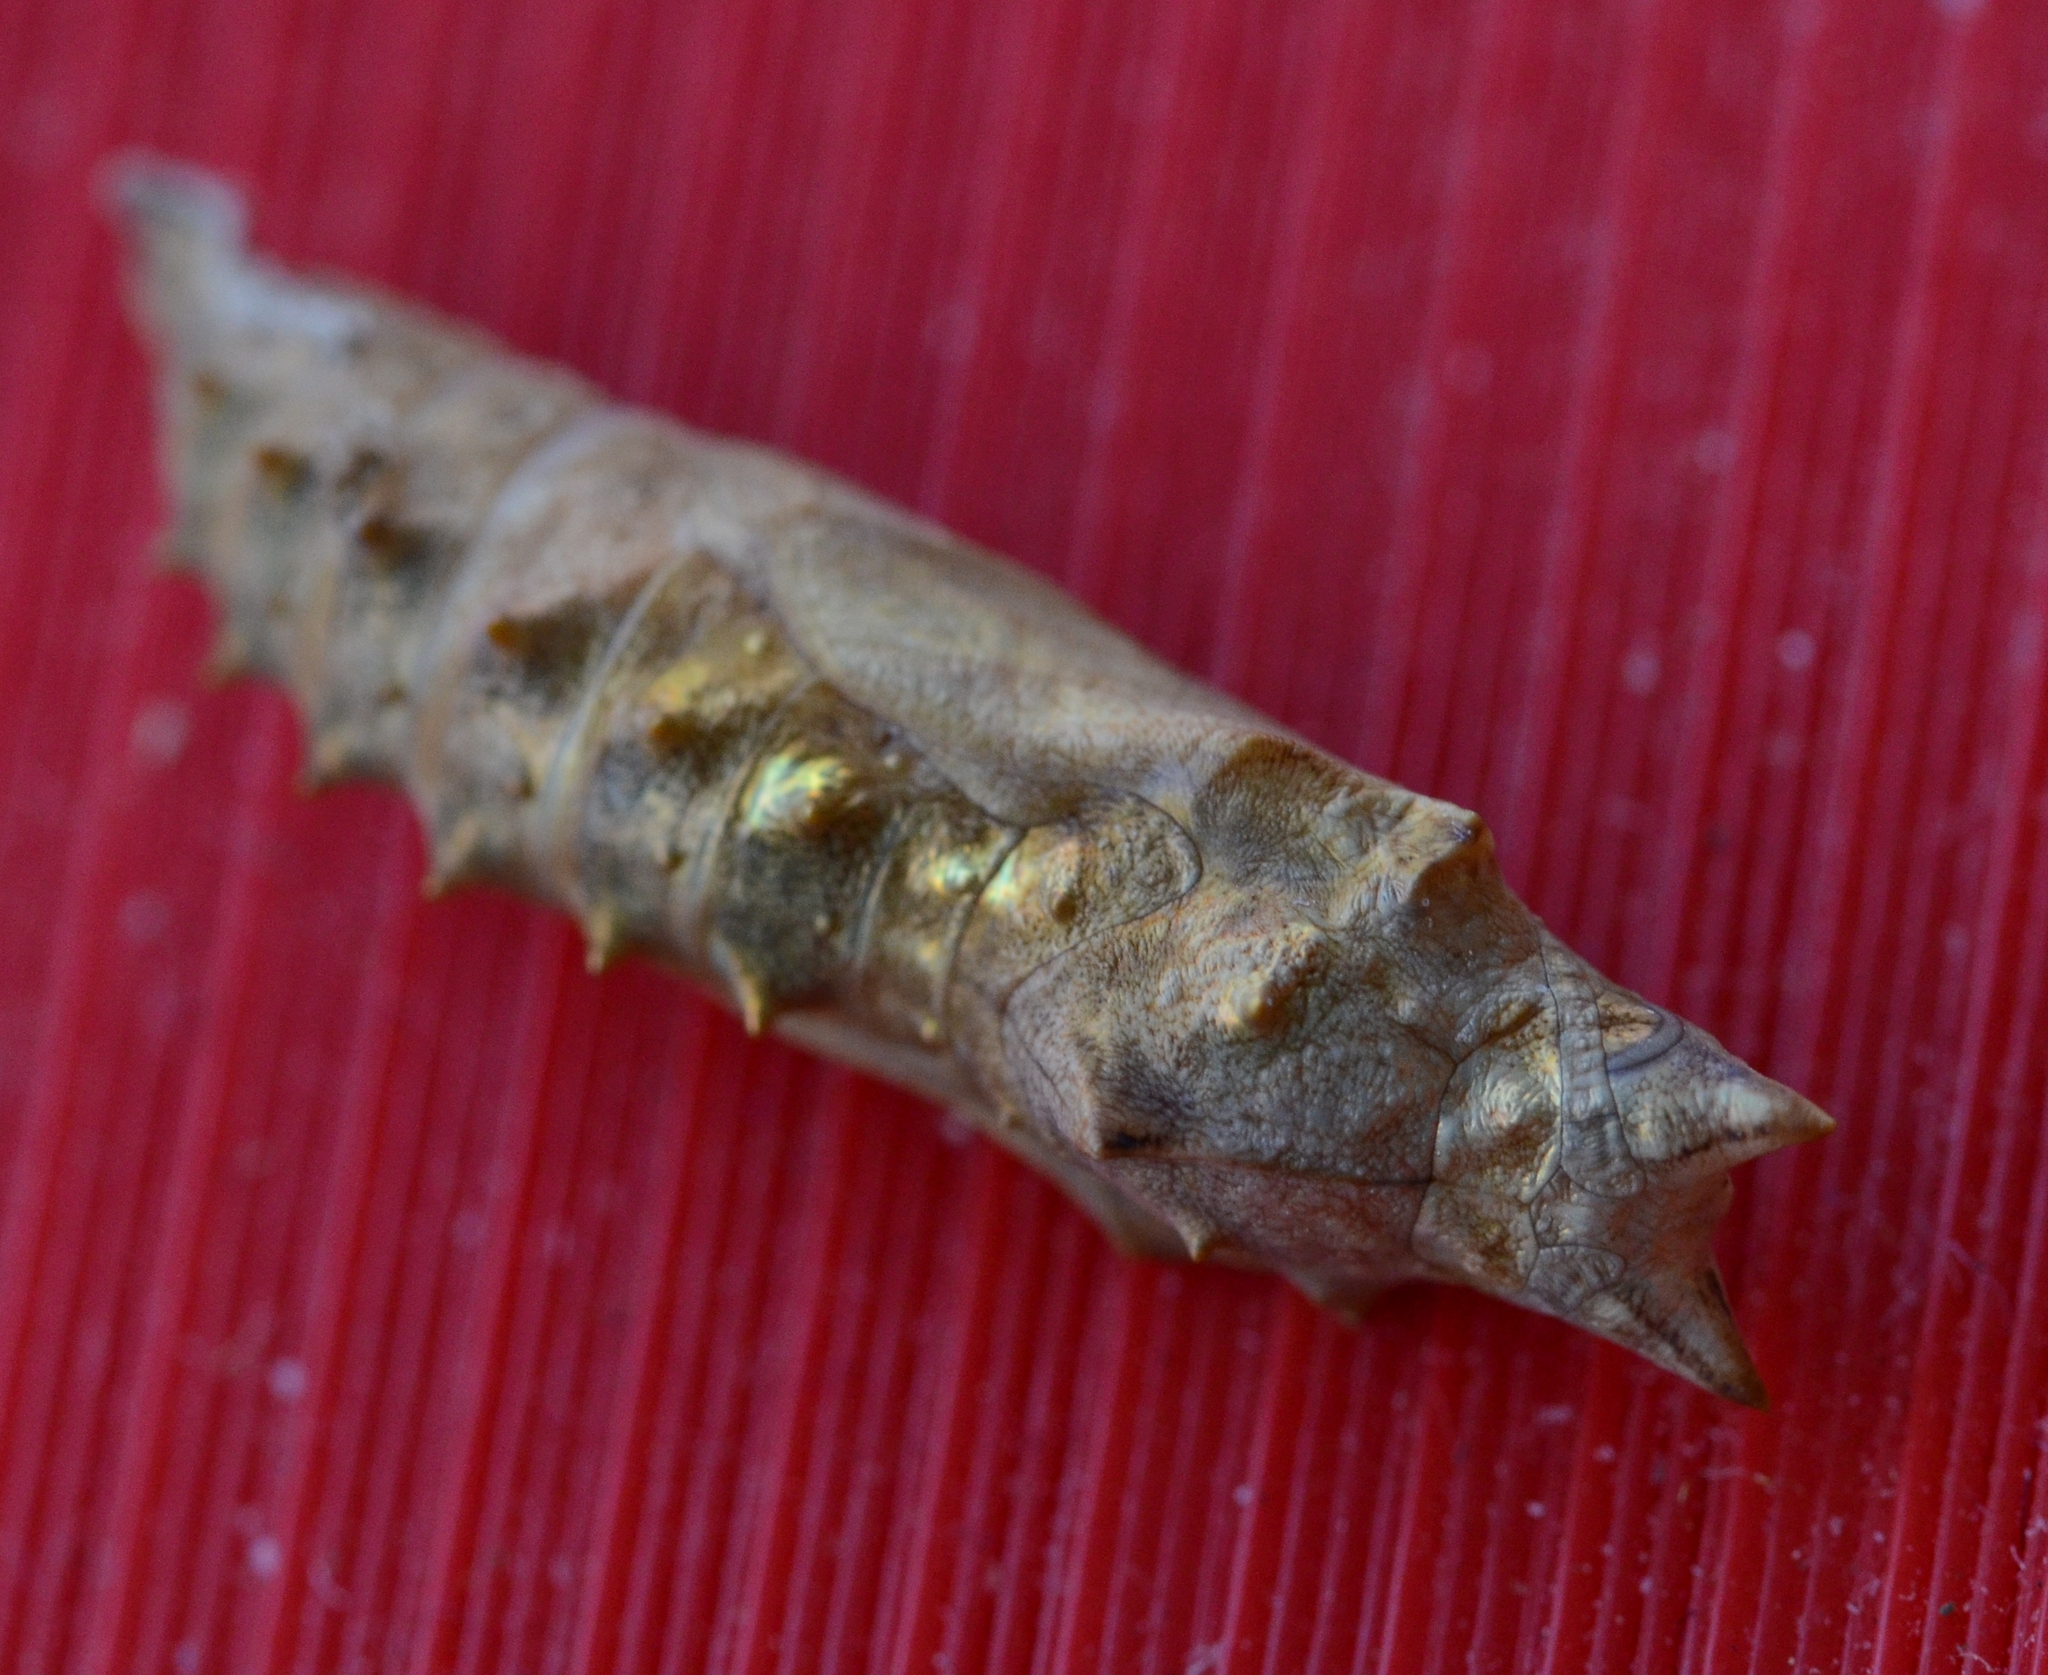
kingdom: Animalia
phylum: Arthropoda
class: Insecta
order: Lepidoptera
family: Nymphalidae
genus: Vanessa
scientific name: Vanessa atalanta
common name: Red admiral
